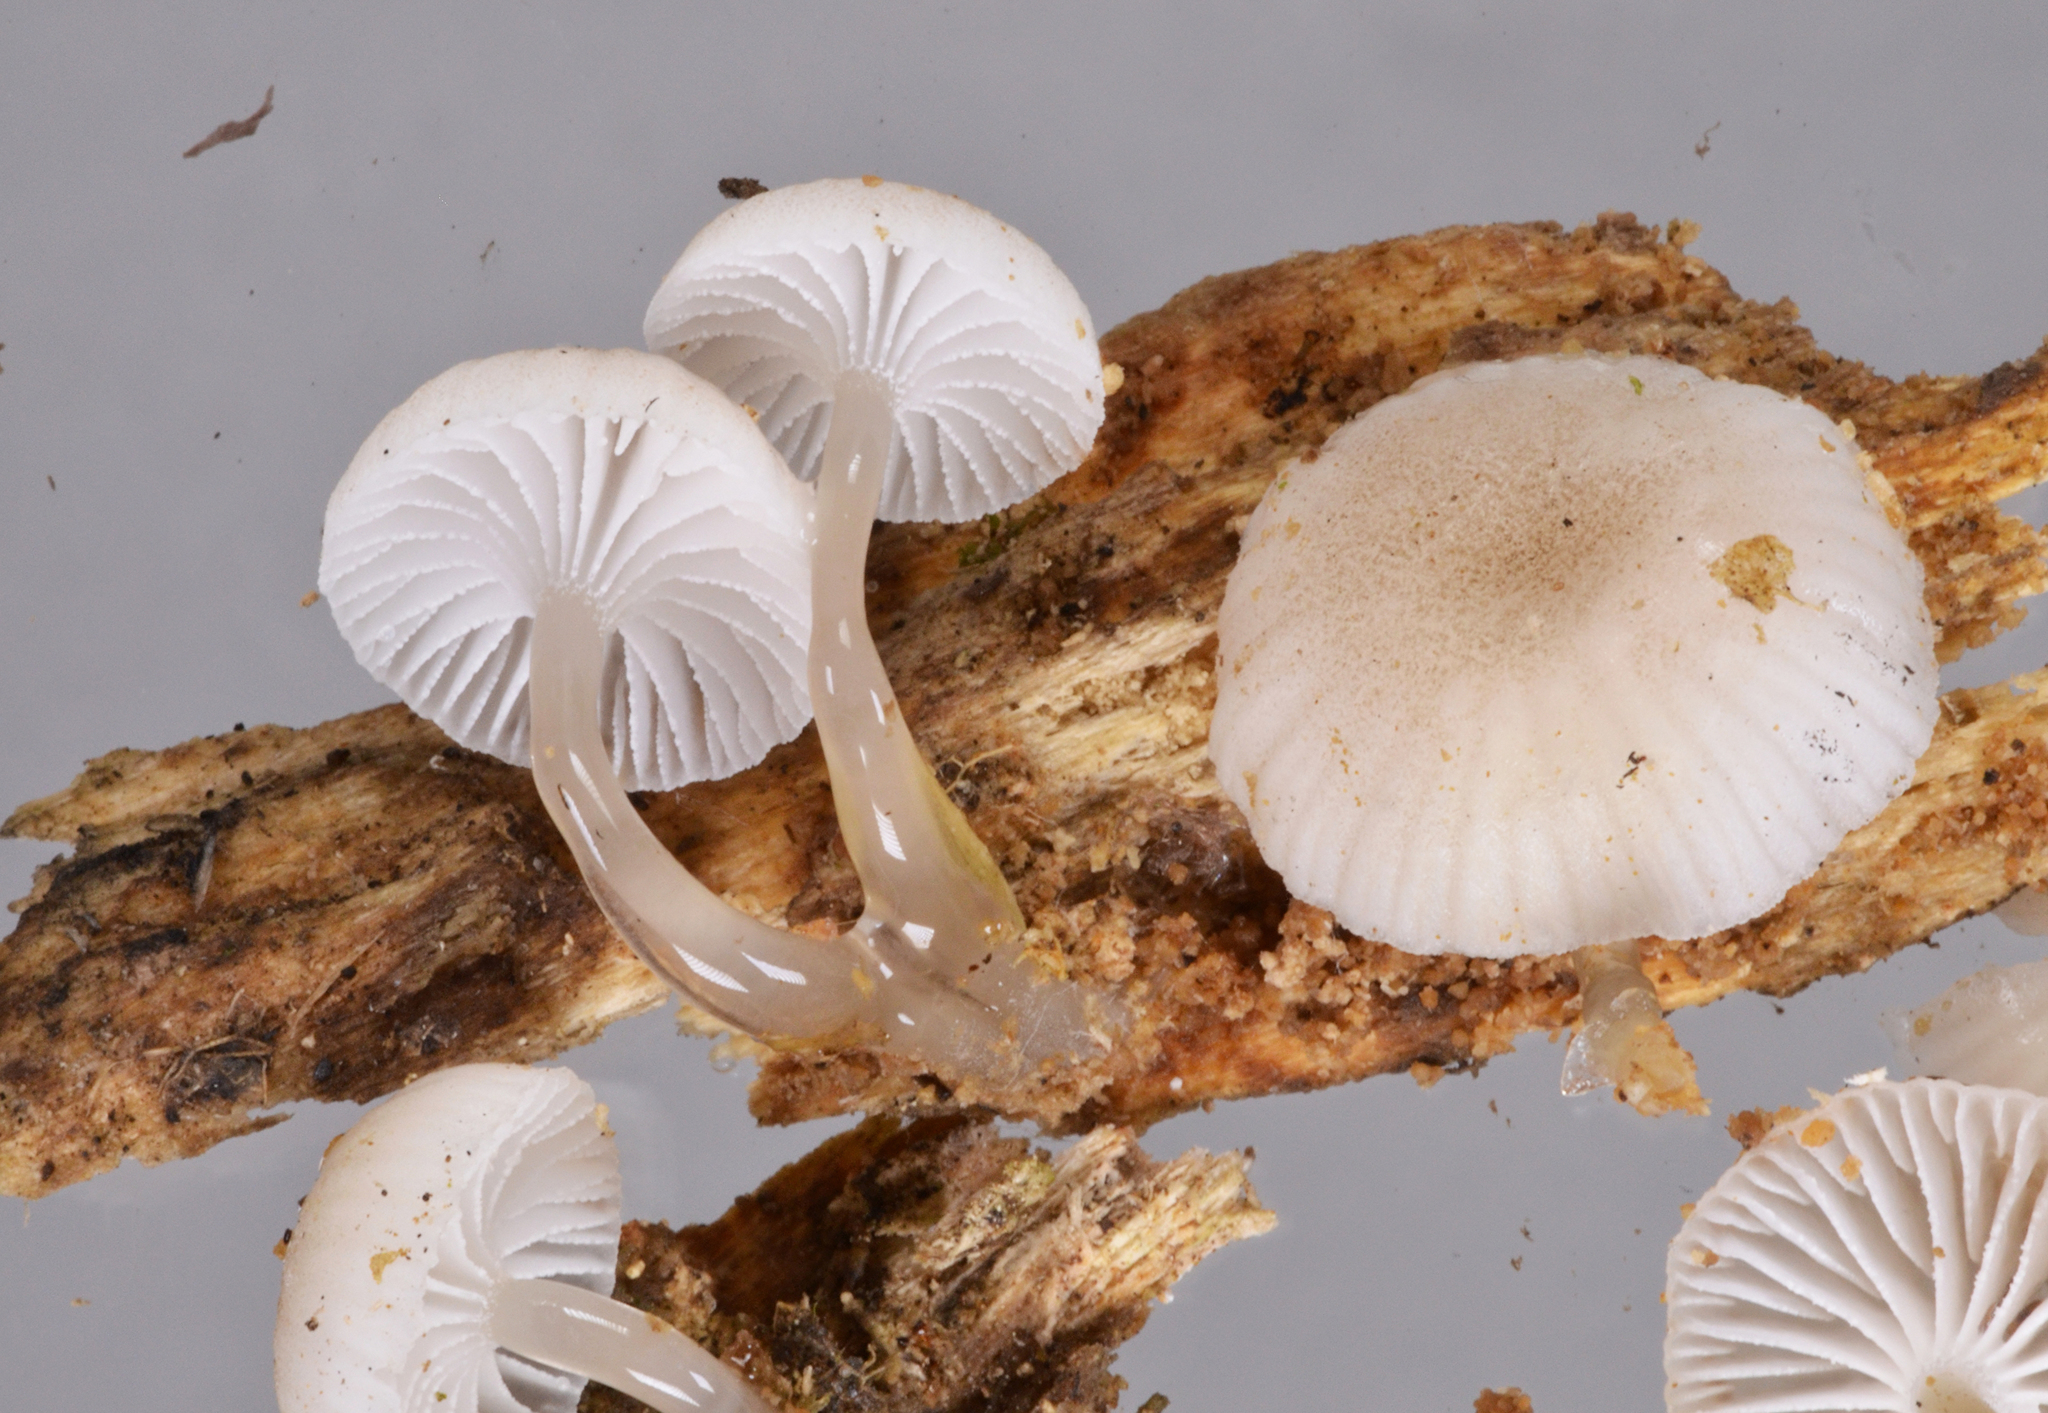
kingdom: Fungi
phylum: Basidiomycota
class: Agaricomycetes
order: Agaricales
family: Mycenaceae
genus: Roridomyces
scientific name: Roridomyces austrororidus
